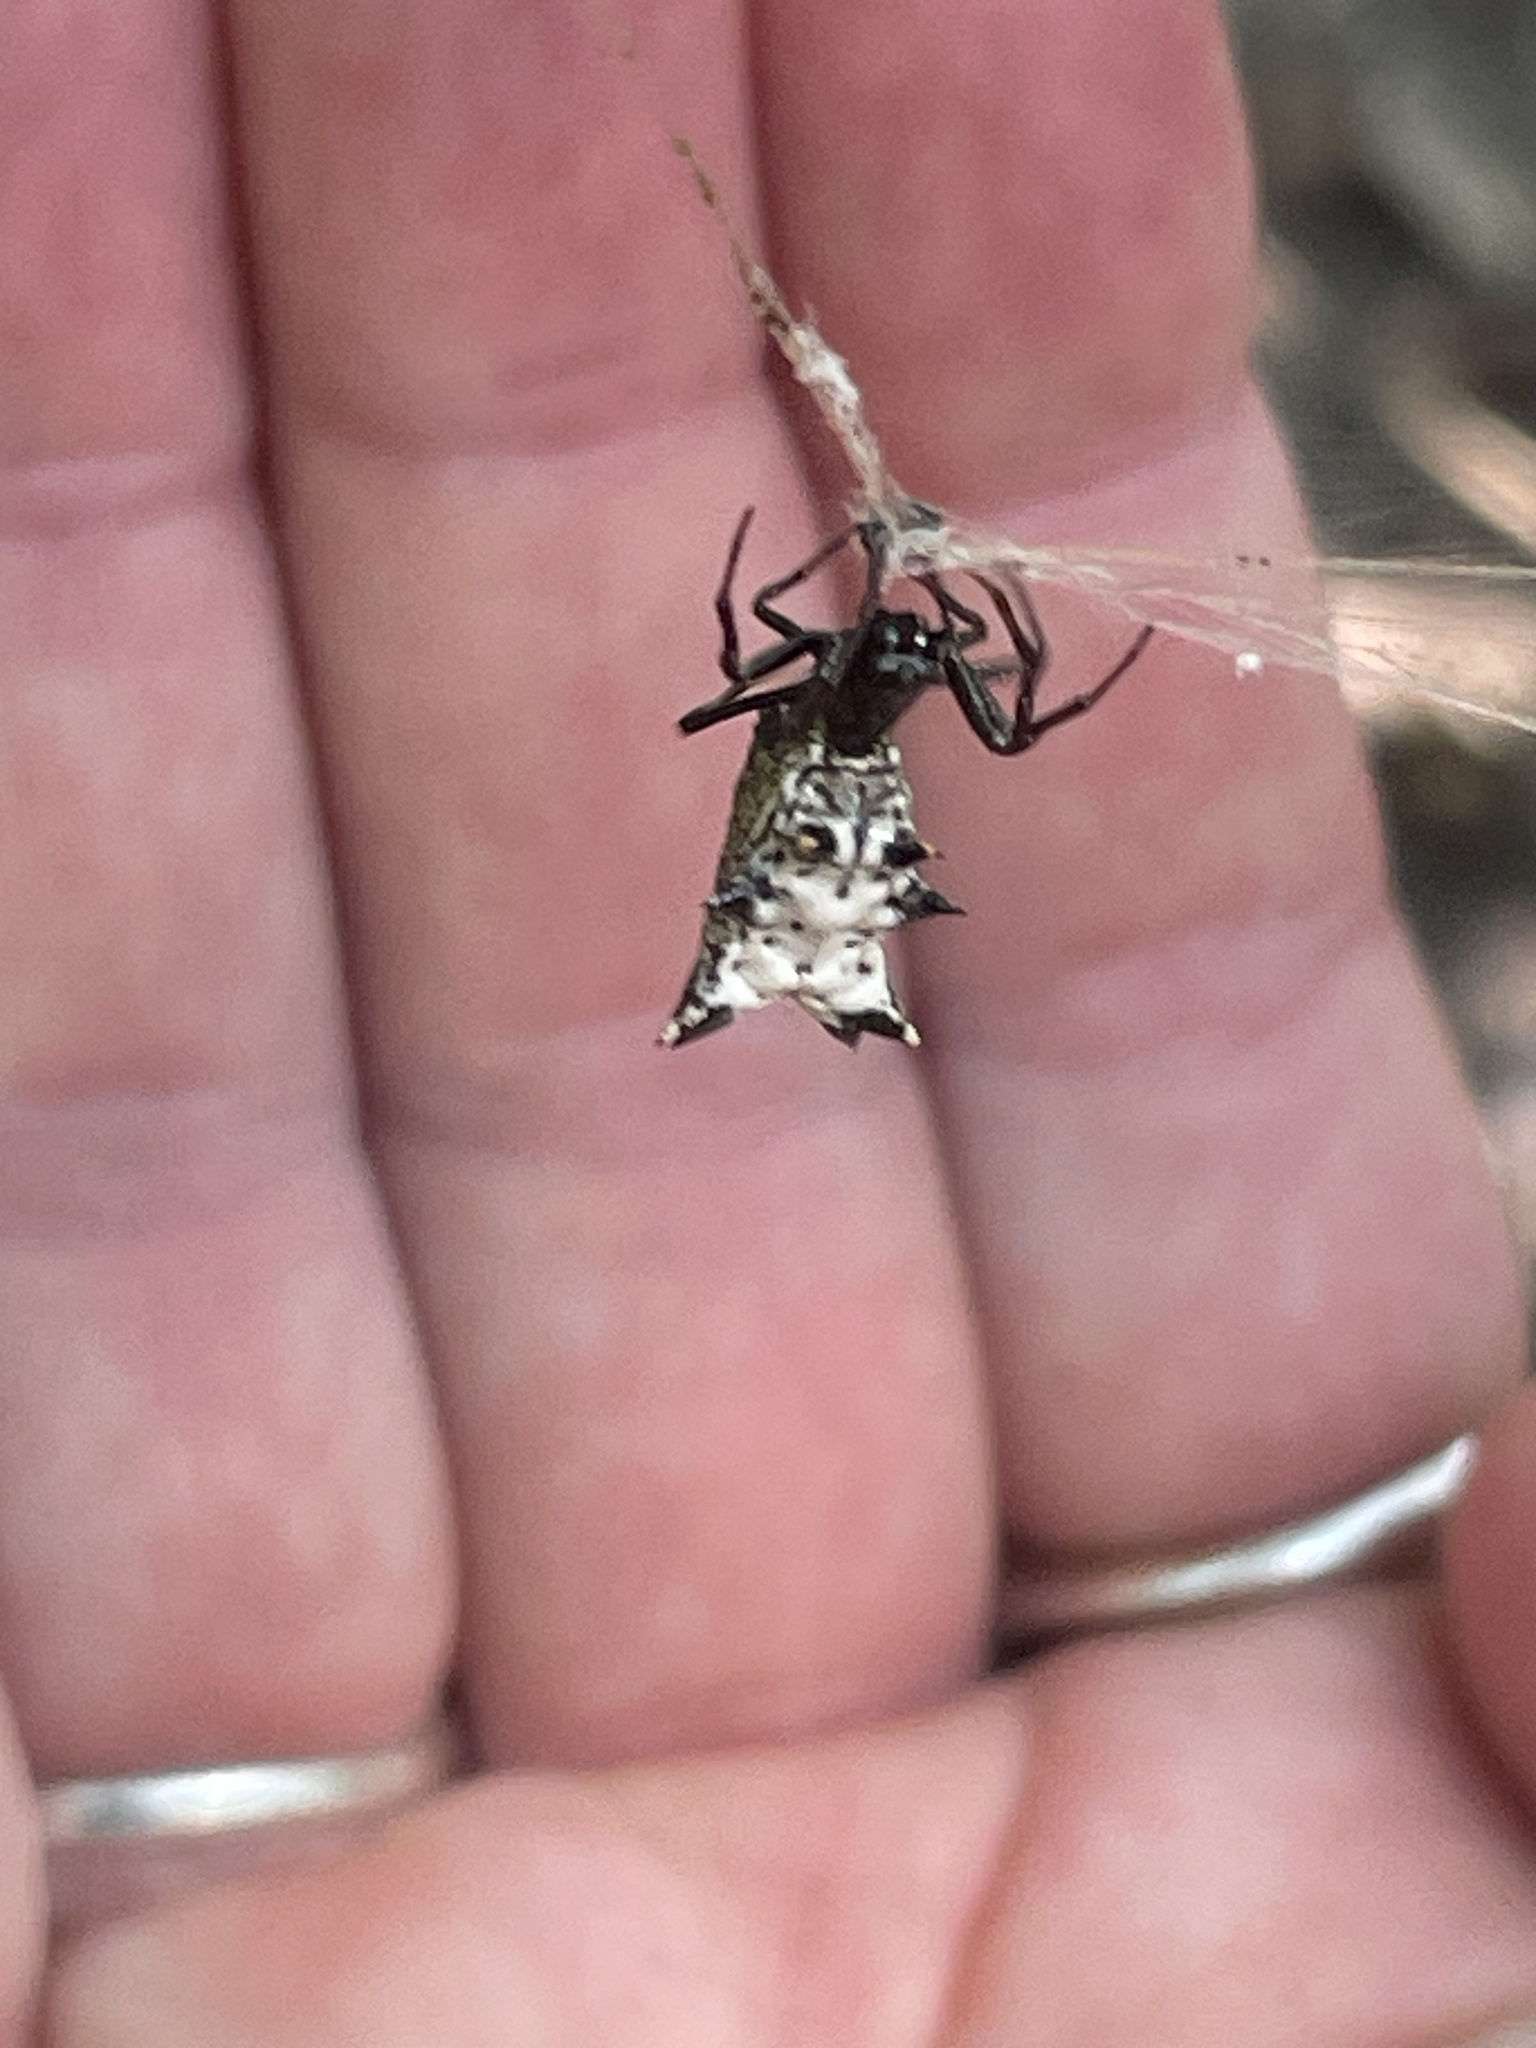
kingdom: Animalia
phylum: Arthropoda
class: Arachnida
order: Araneae
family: Araneidae
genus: Micrathena
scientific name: Micrathena gracilis
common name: Orb weavers
